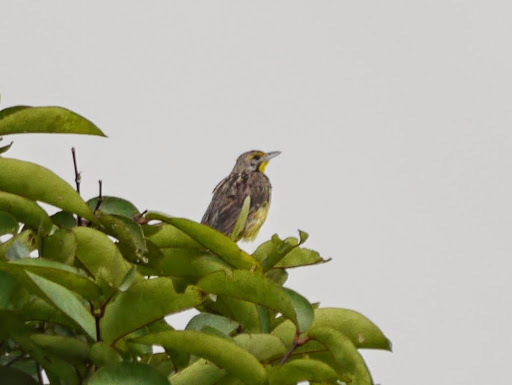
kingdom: Animalia
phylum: Chordata
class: Aves
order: Passeriformes
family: Motacillidae
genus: Macronyx
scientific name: Macronyx croceus
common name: Yellow-throated longclaw
